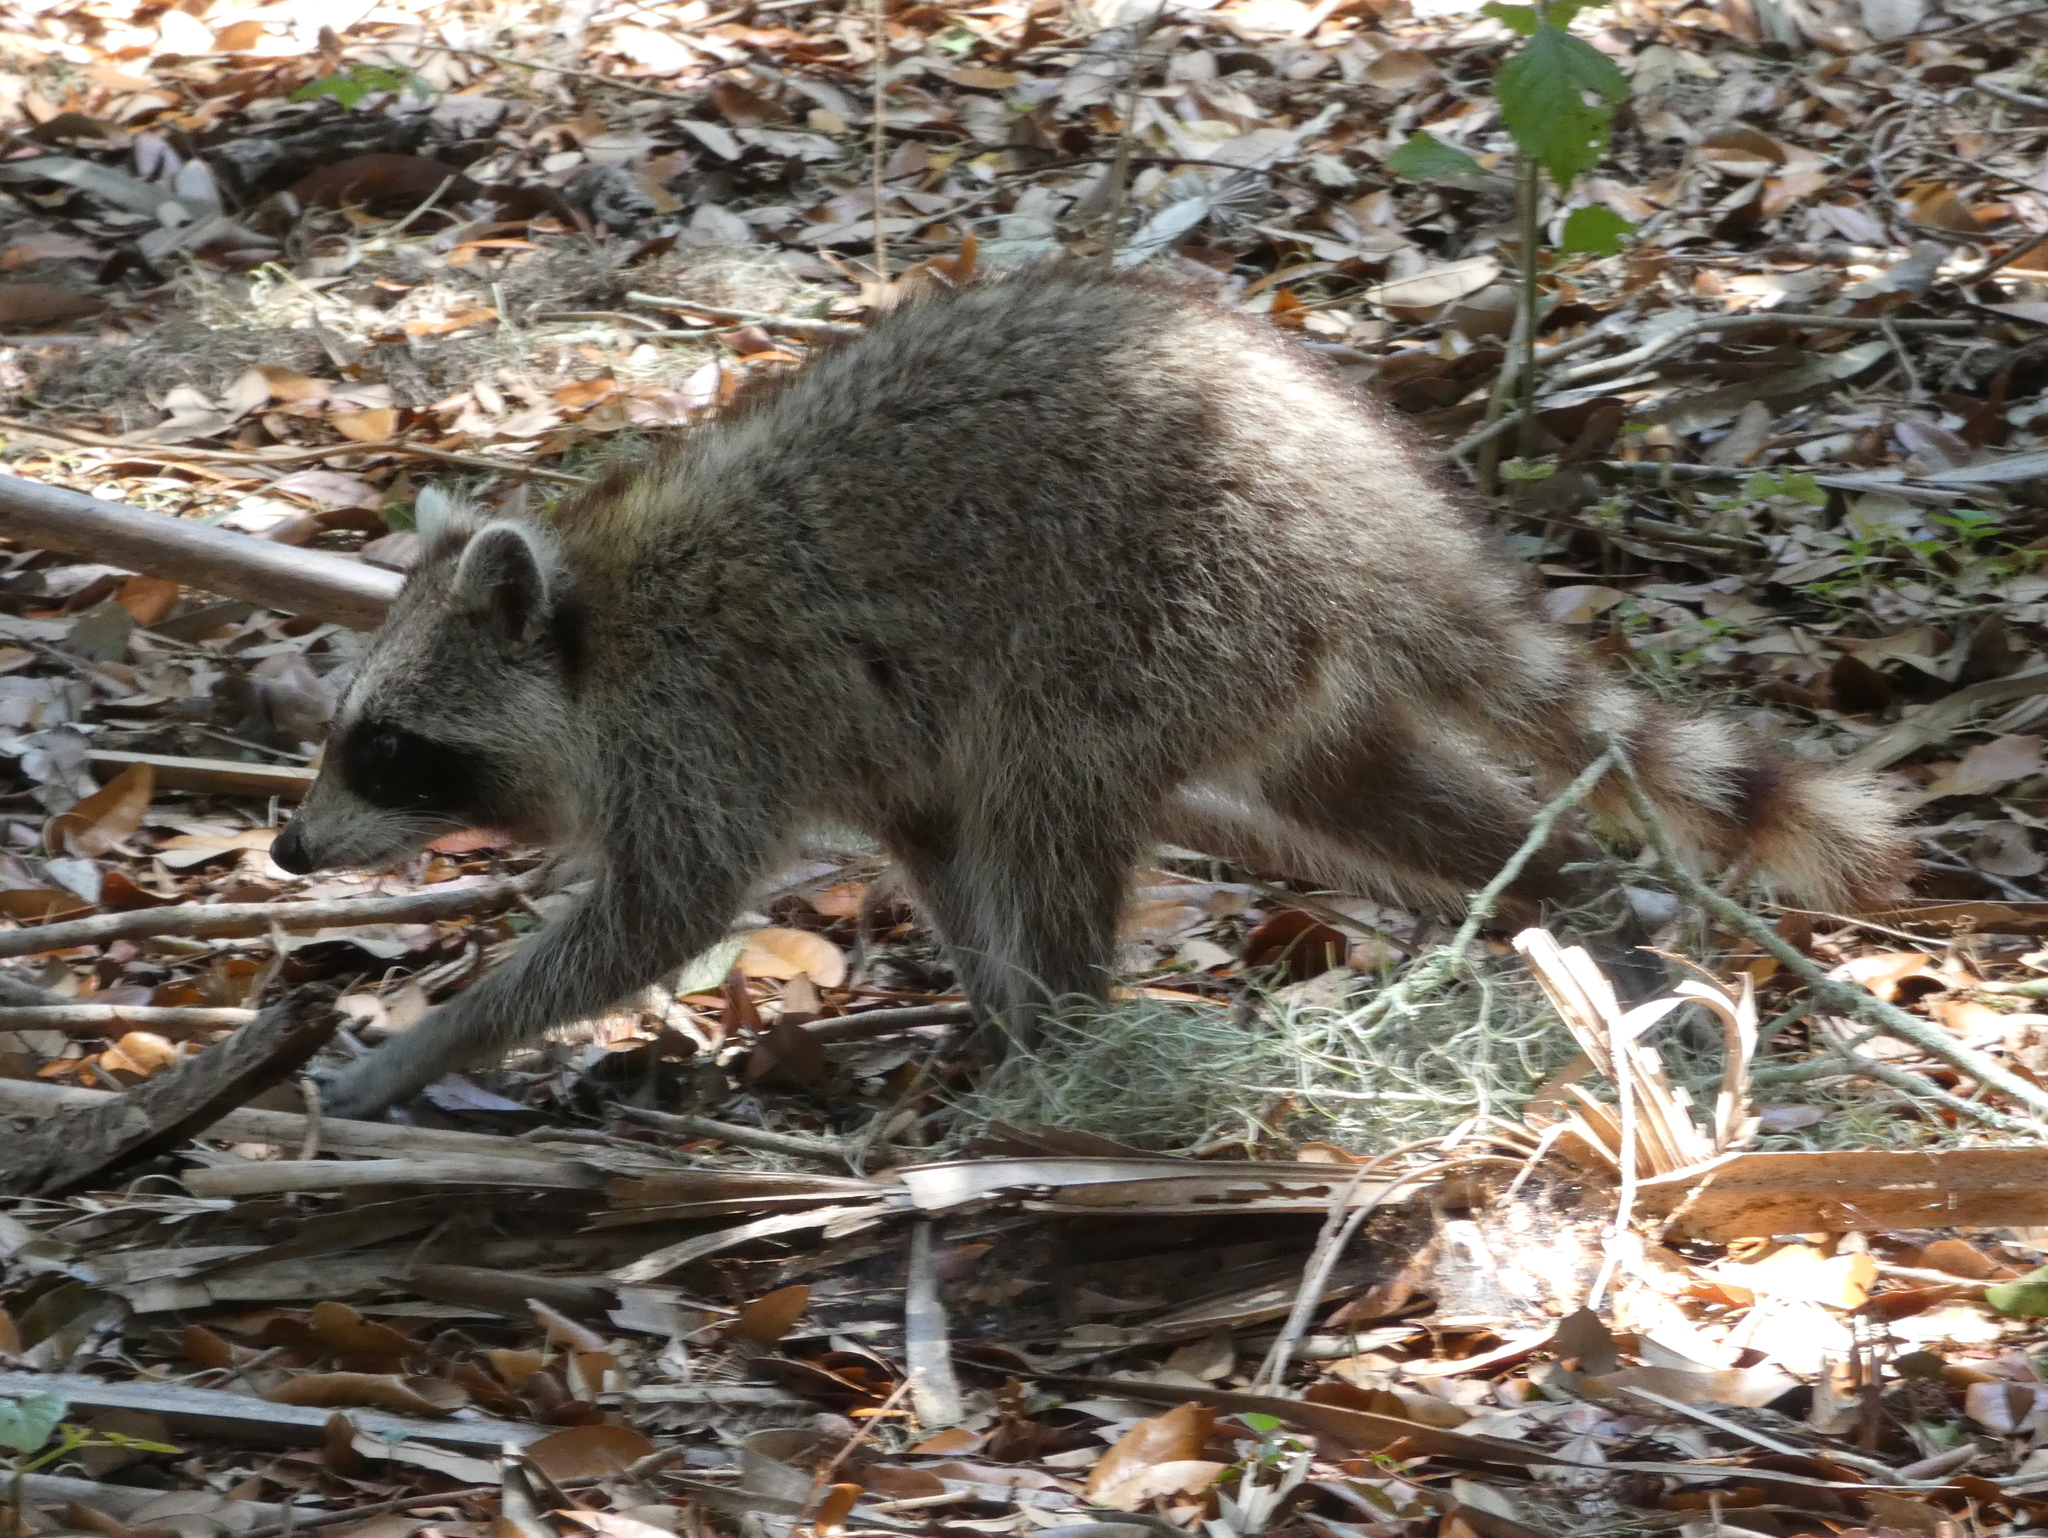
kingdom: Animalia
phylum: Chordata
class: Mammalia
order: Carnivora
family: Procyonidae
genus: Procyon
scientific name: Procyon lotor
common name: Raccoon
